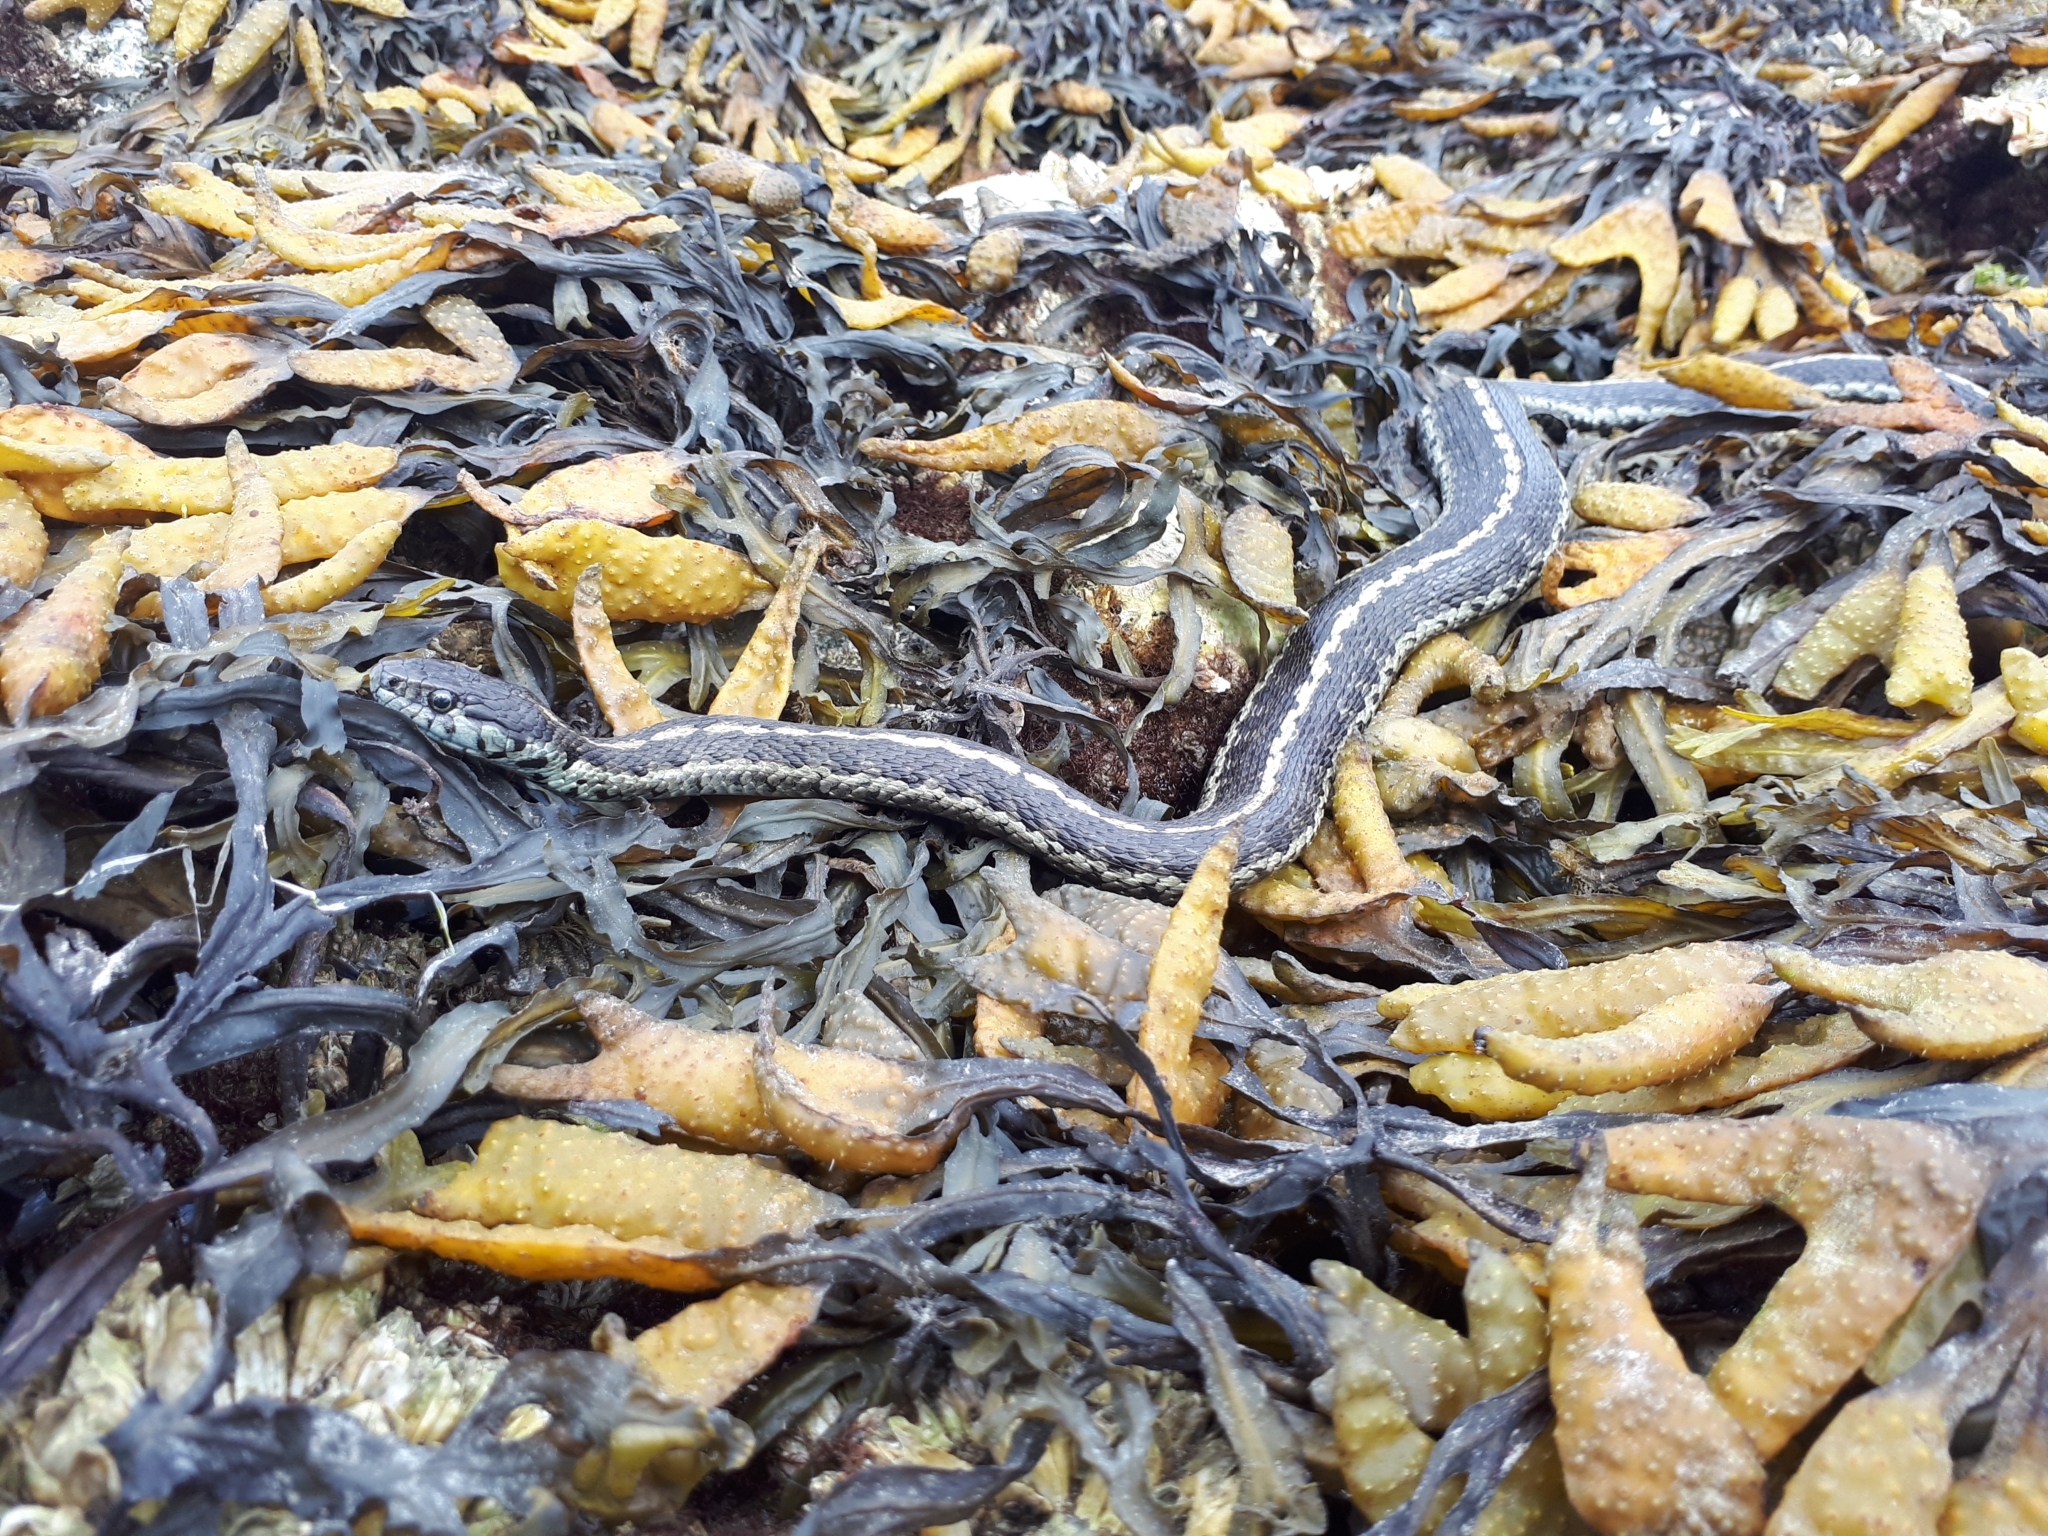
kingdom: Animalia
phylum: Chordata
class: Squamata
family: Colubridae
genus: Thamnophis
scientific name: Thamnophis elegans
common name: Western terrestrial garter snake
